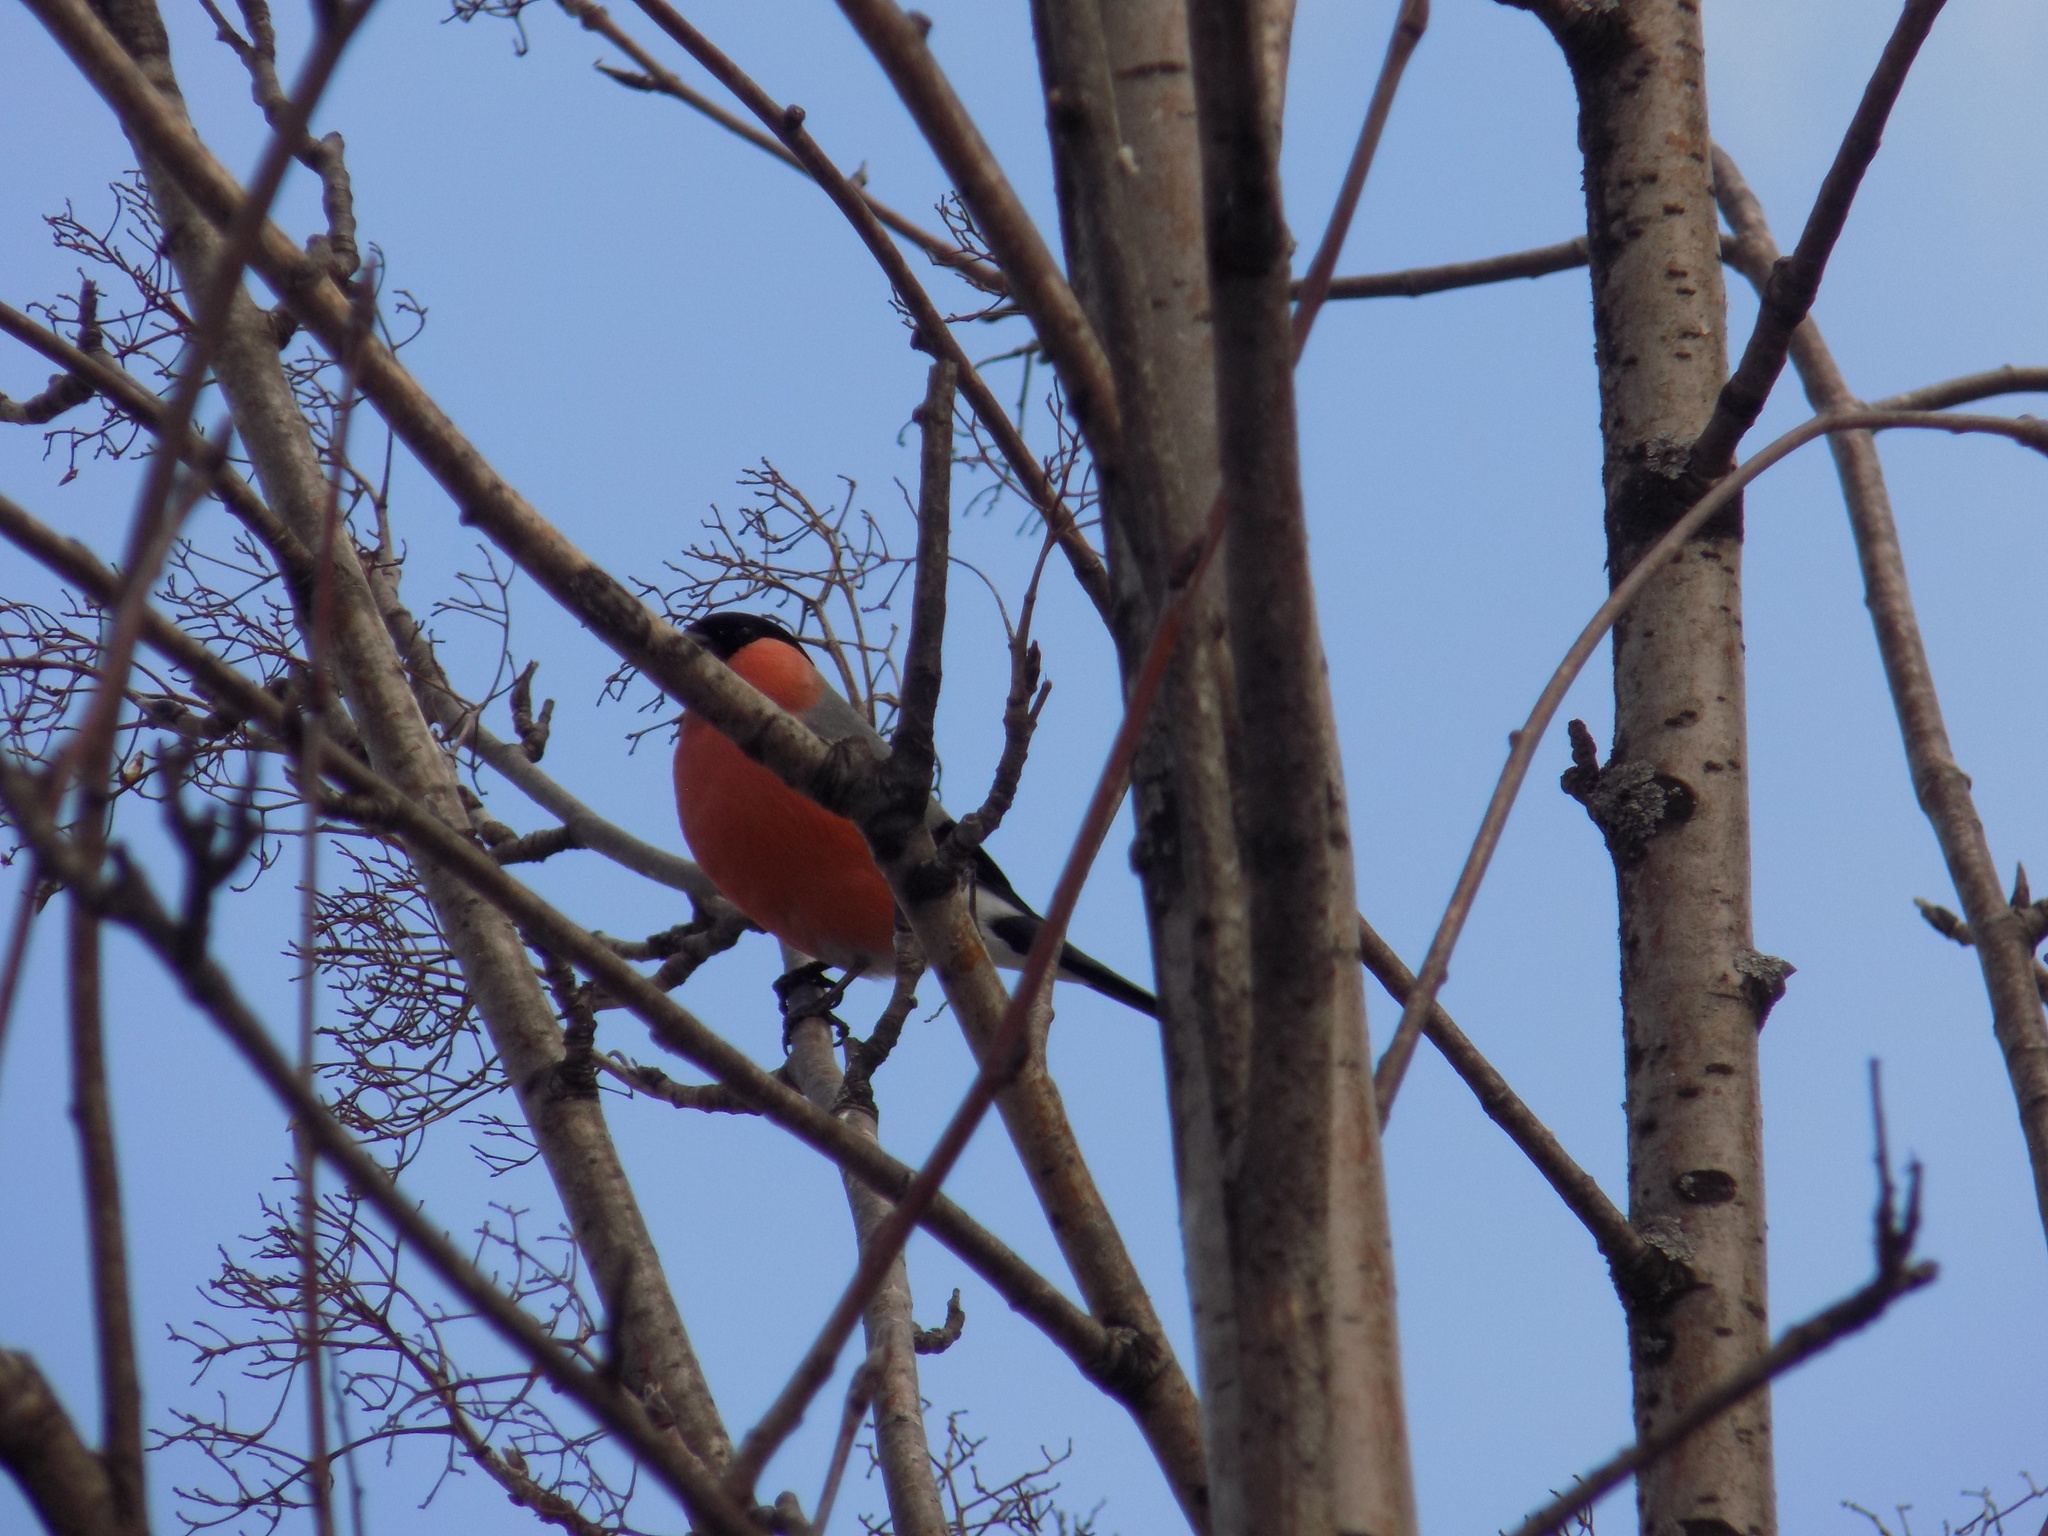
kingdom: Animalia
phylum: Chordata
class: Aves
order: Passeriformes
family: Fringillidae
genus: Pyrrhula
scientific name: Pyrrhula pyrrhula
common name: Eurasian bullfinch
